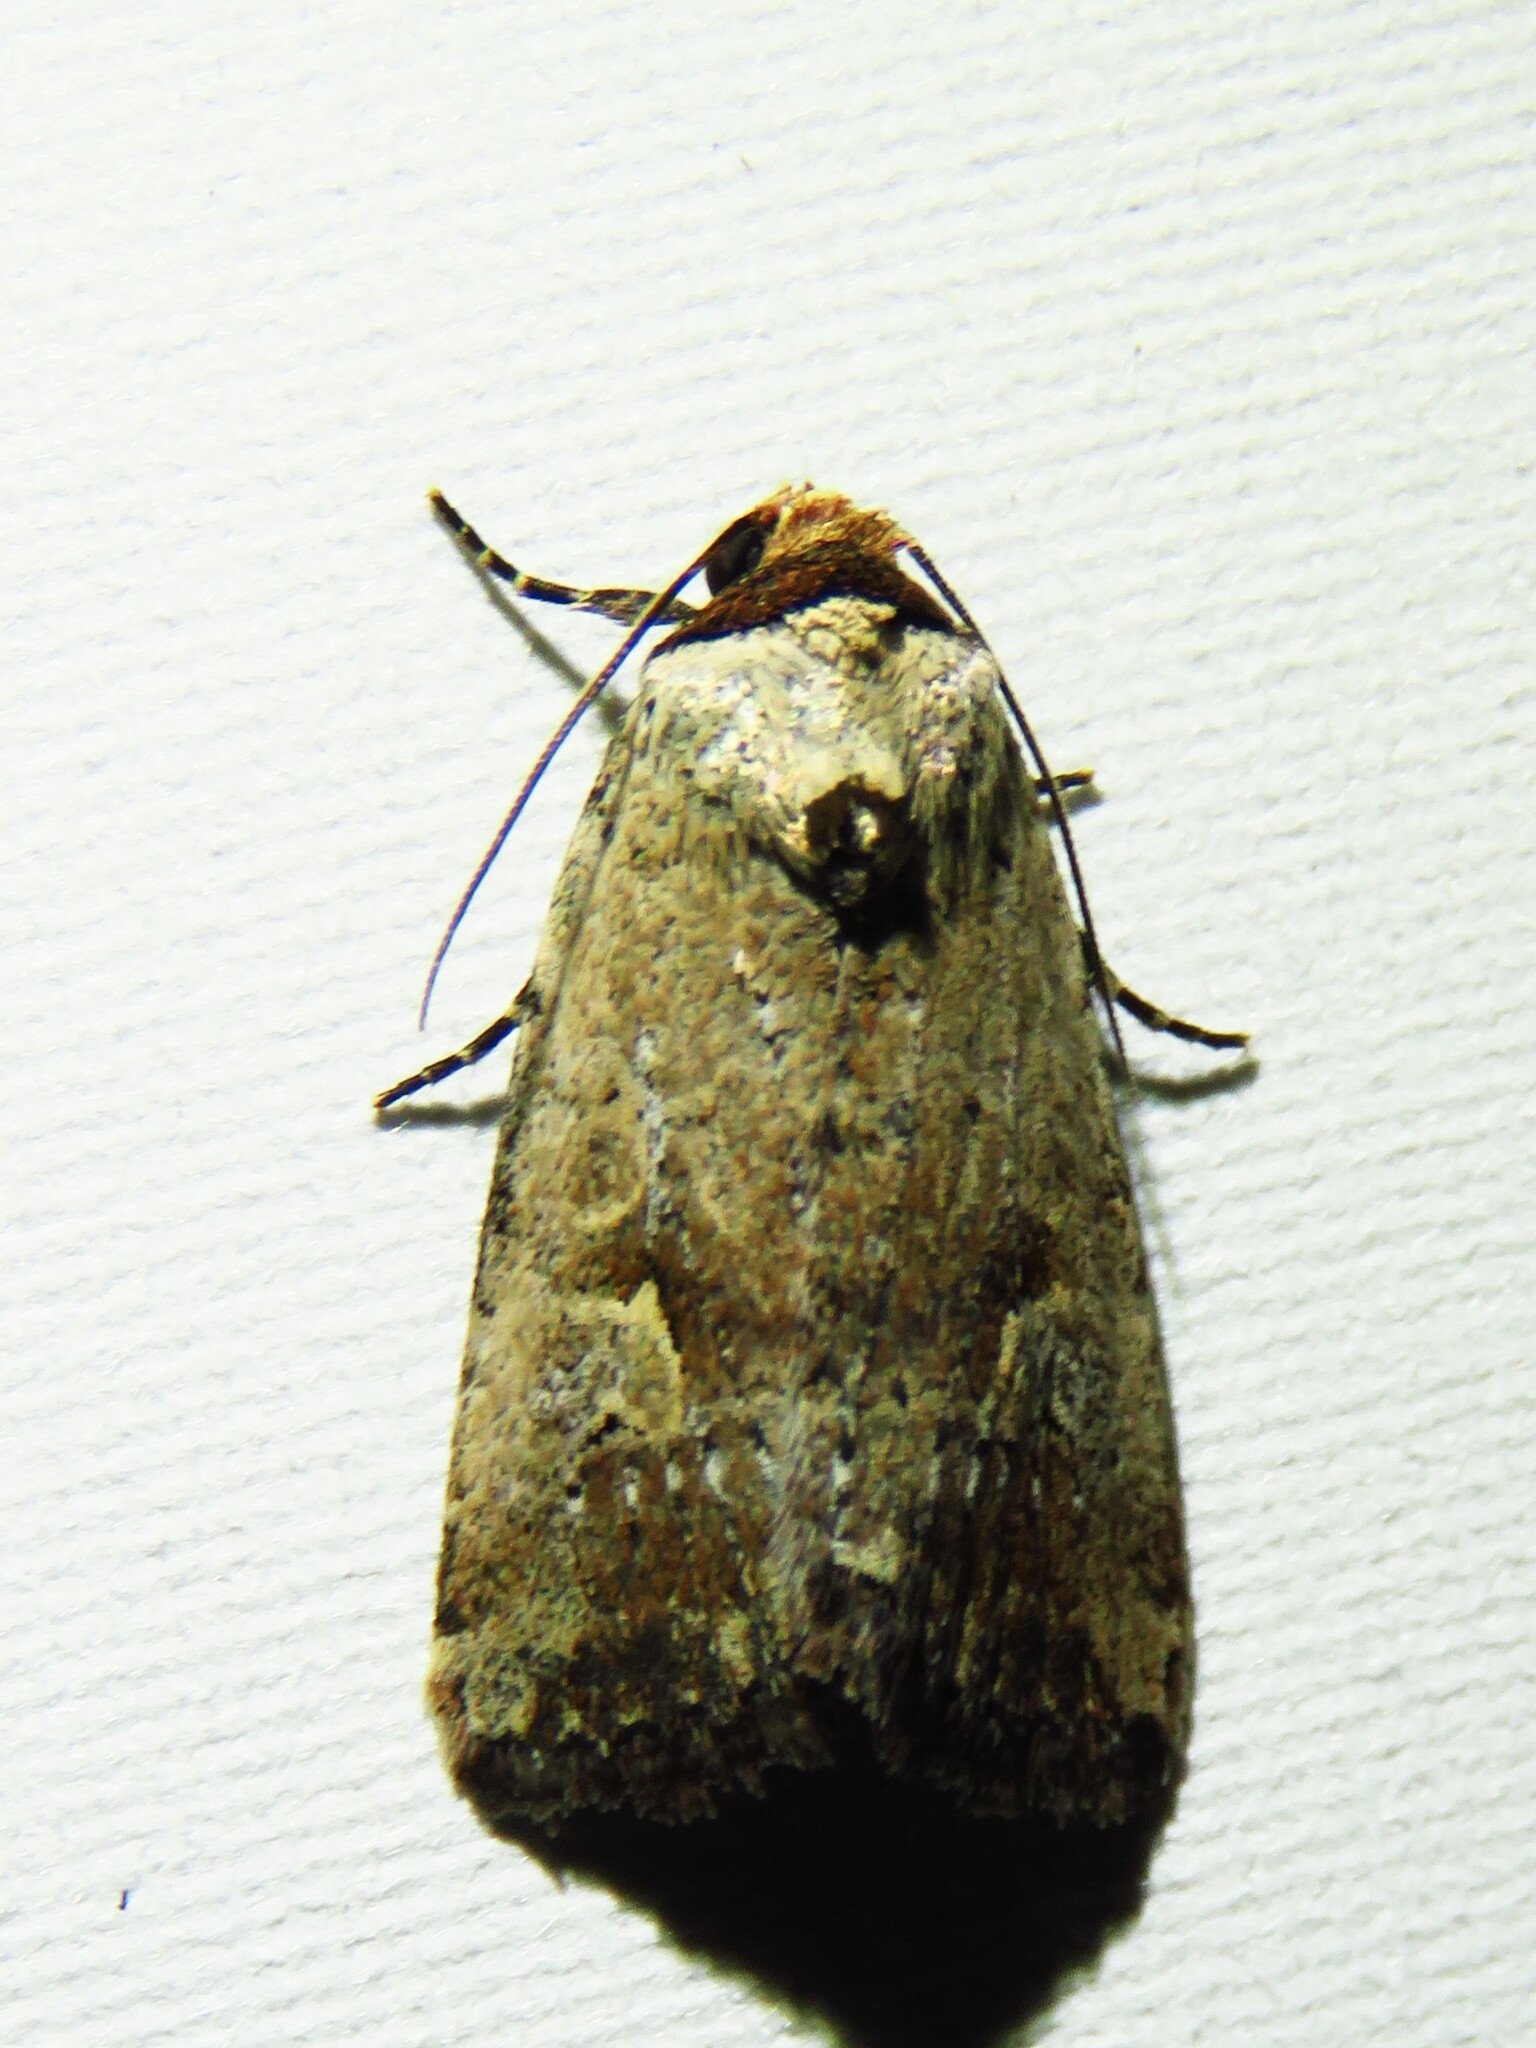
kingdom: Animalia
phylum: Arthropoda
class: Insecta
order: Lepidoptera
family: Noctuidae
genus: Elaphria
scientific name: Elaphria festivoides
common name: Festive midget
